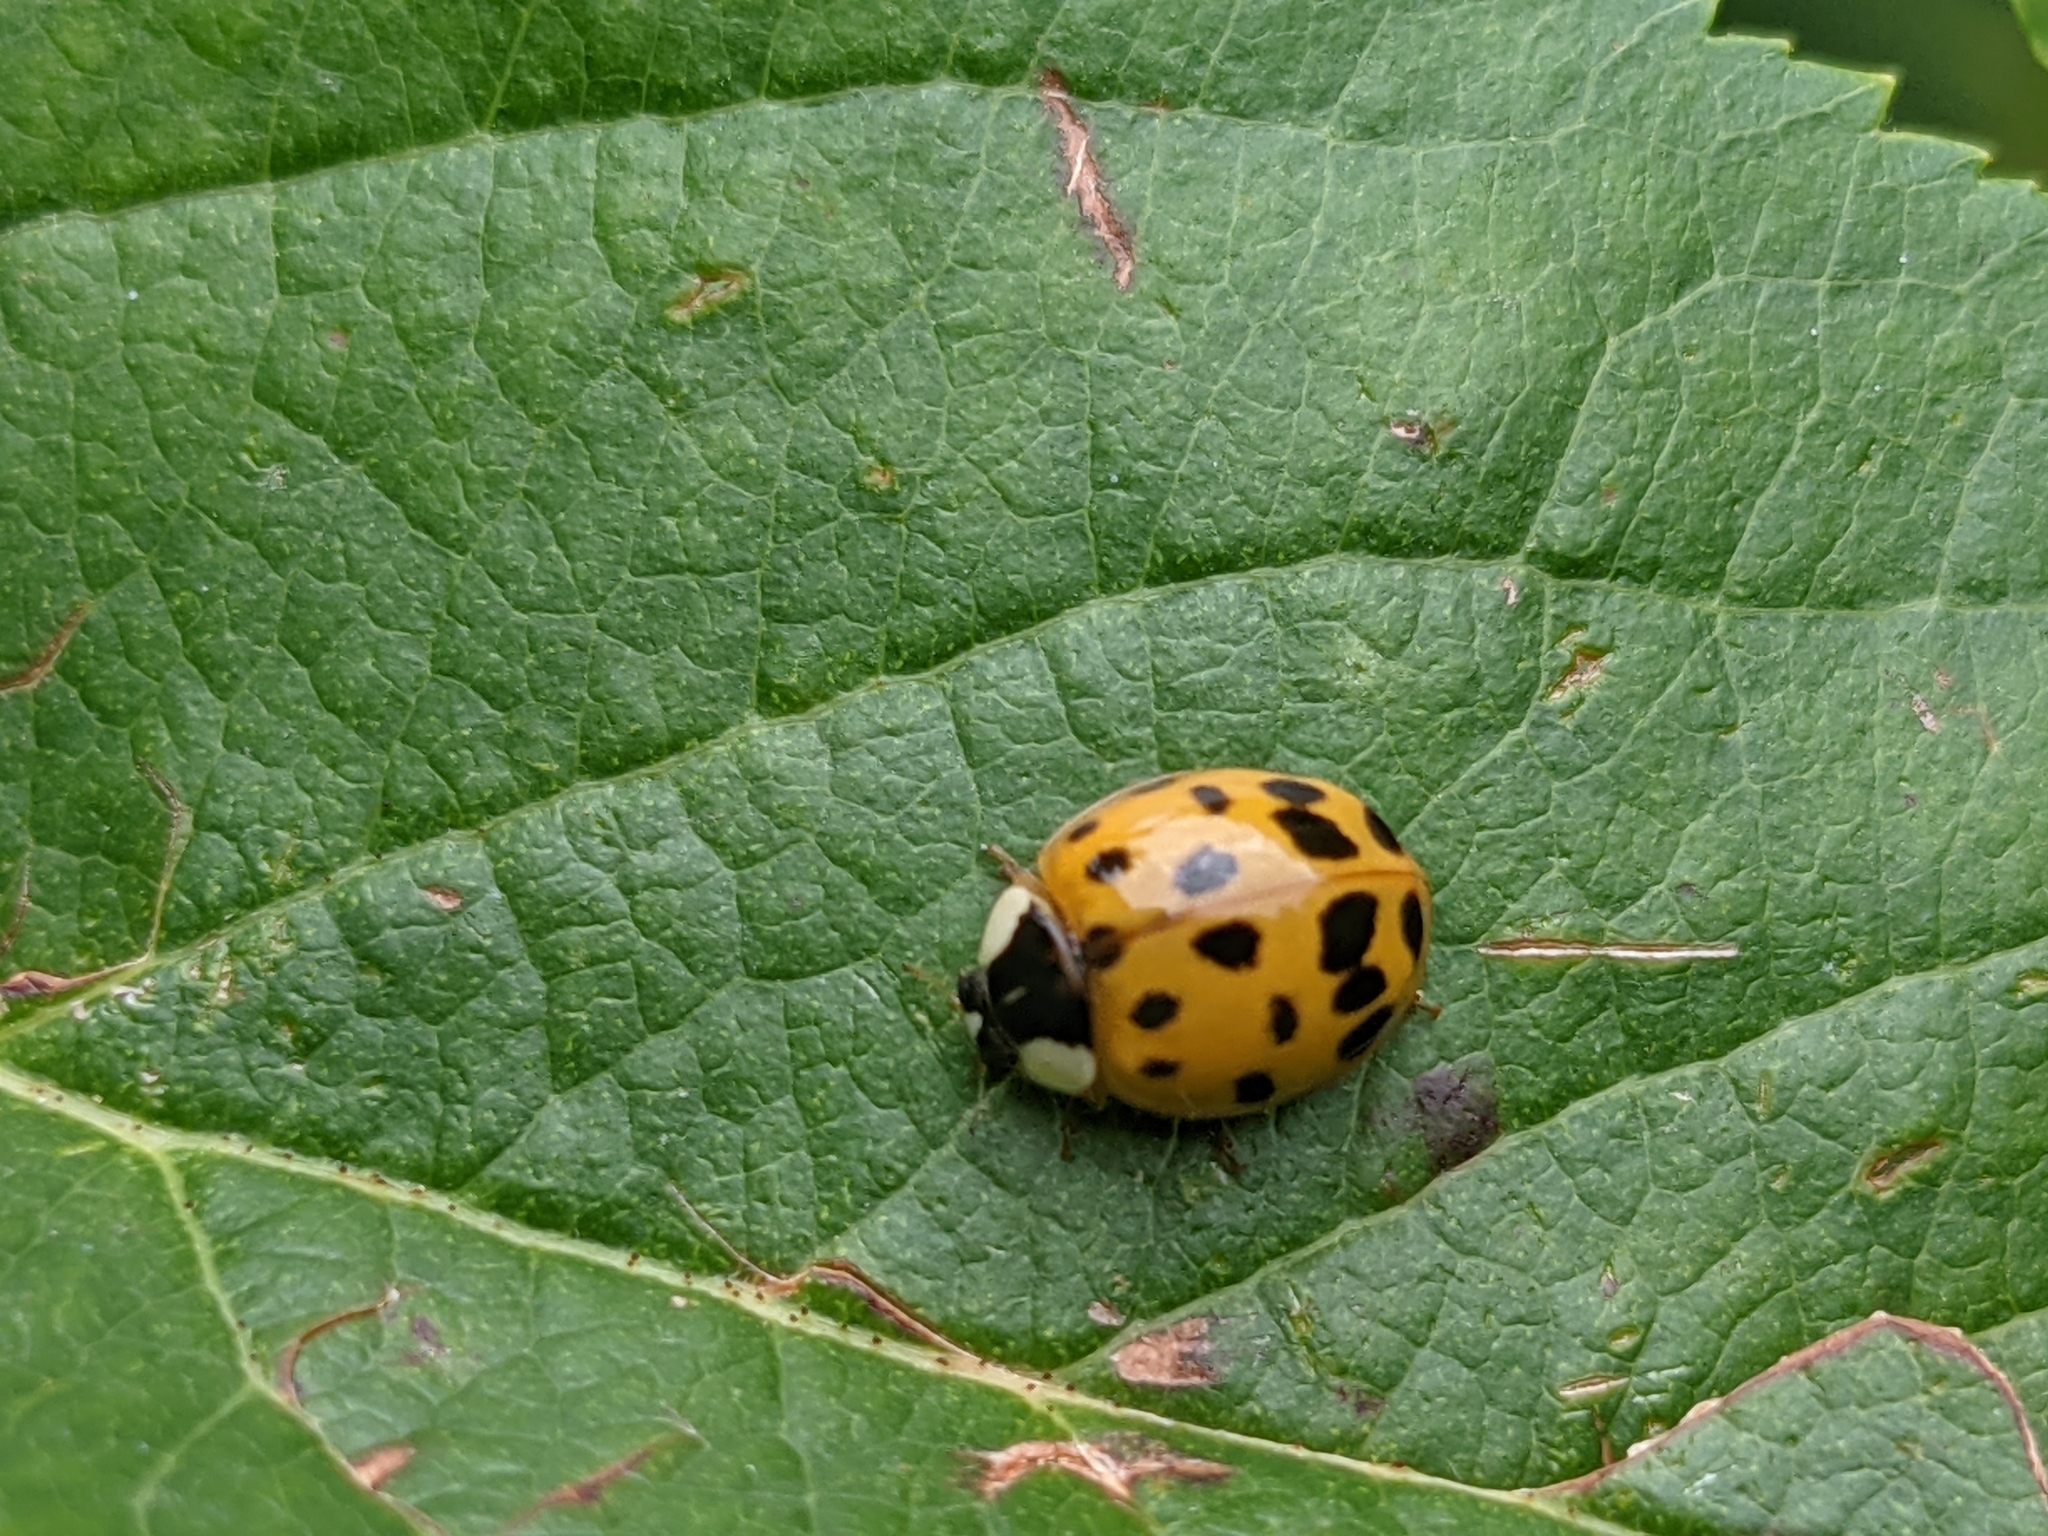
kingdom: Animalia
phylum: Arthropoda
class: Insecta
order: Coleoptera
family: Coccinellidae
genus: Harmonia
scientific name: Harmonia axyridis
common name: Harlequin ladybird
